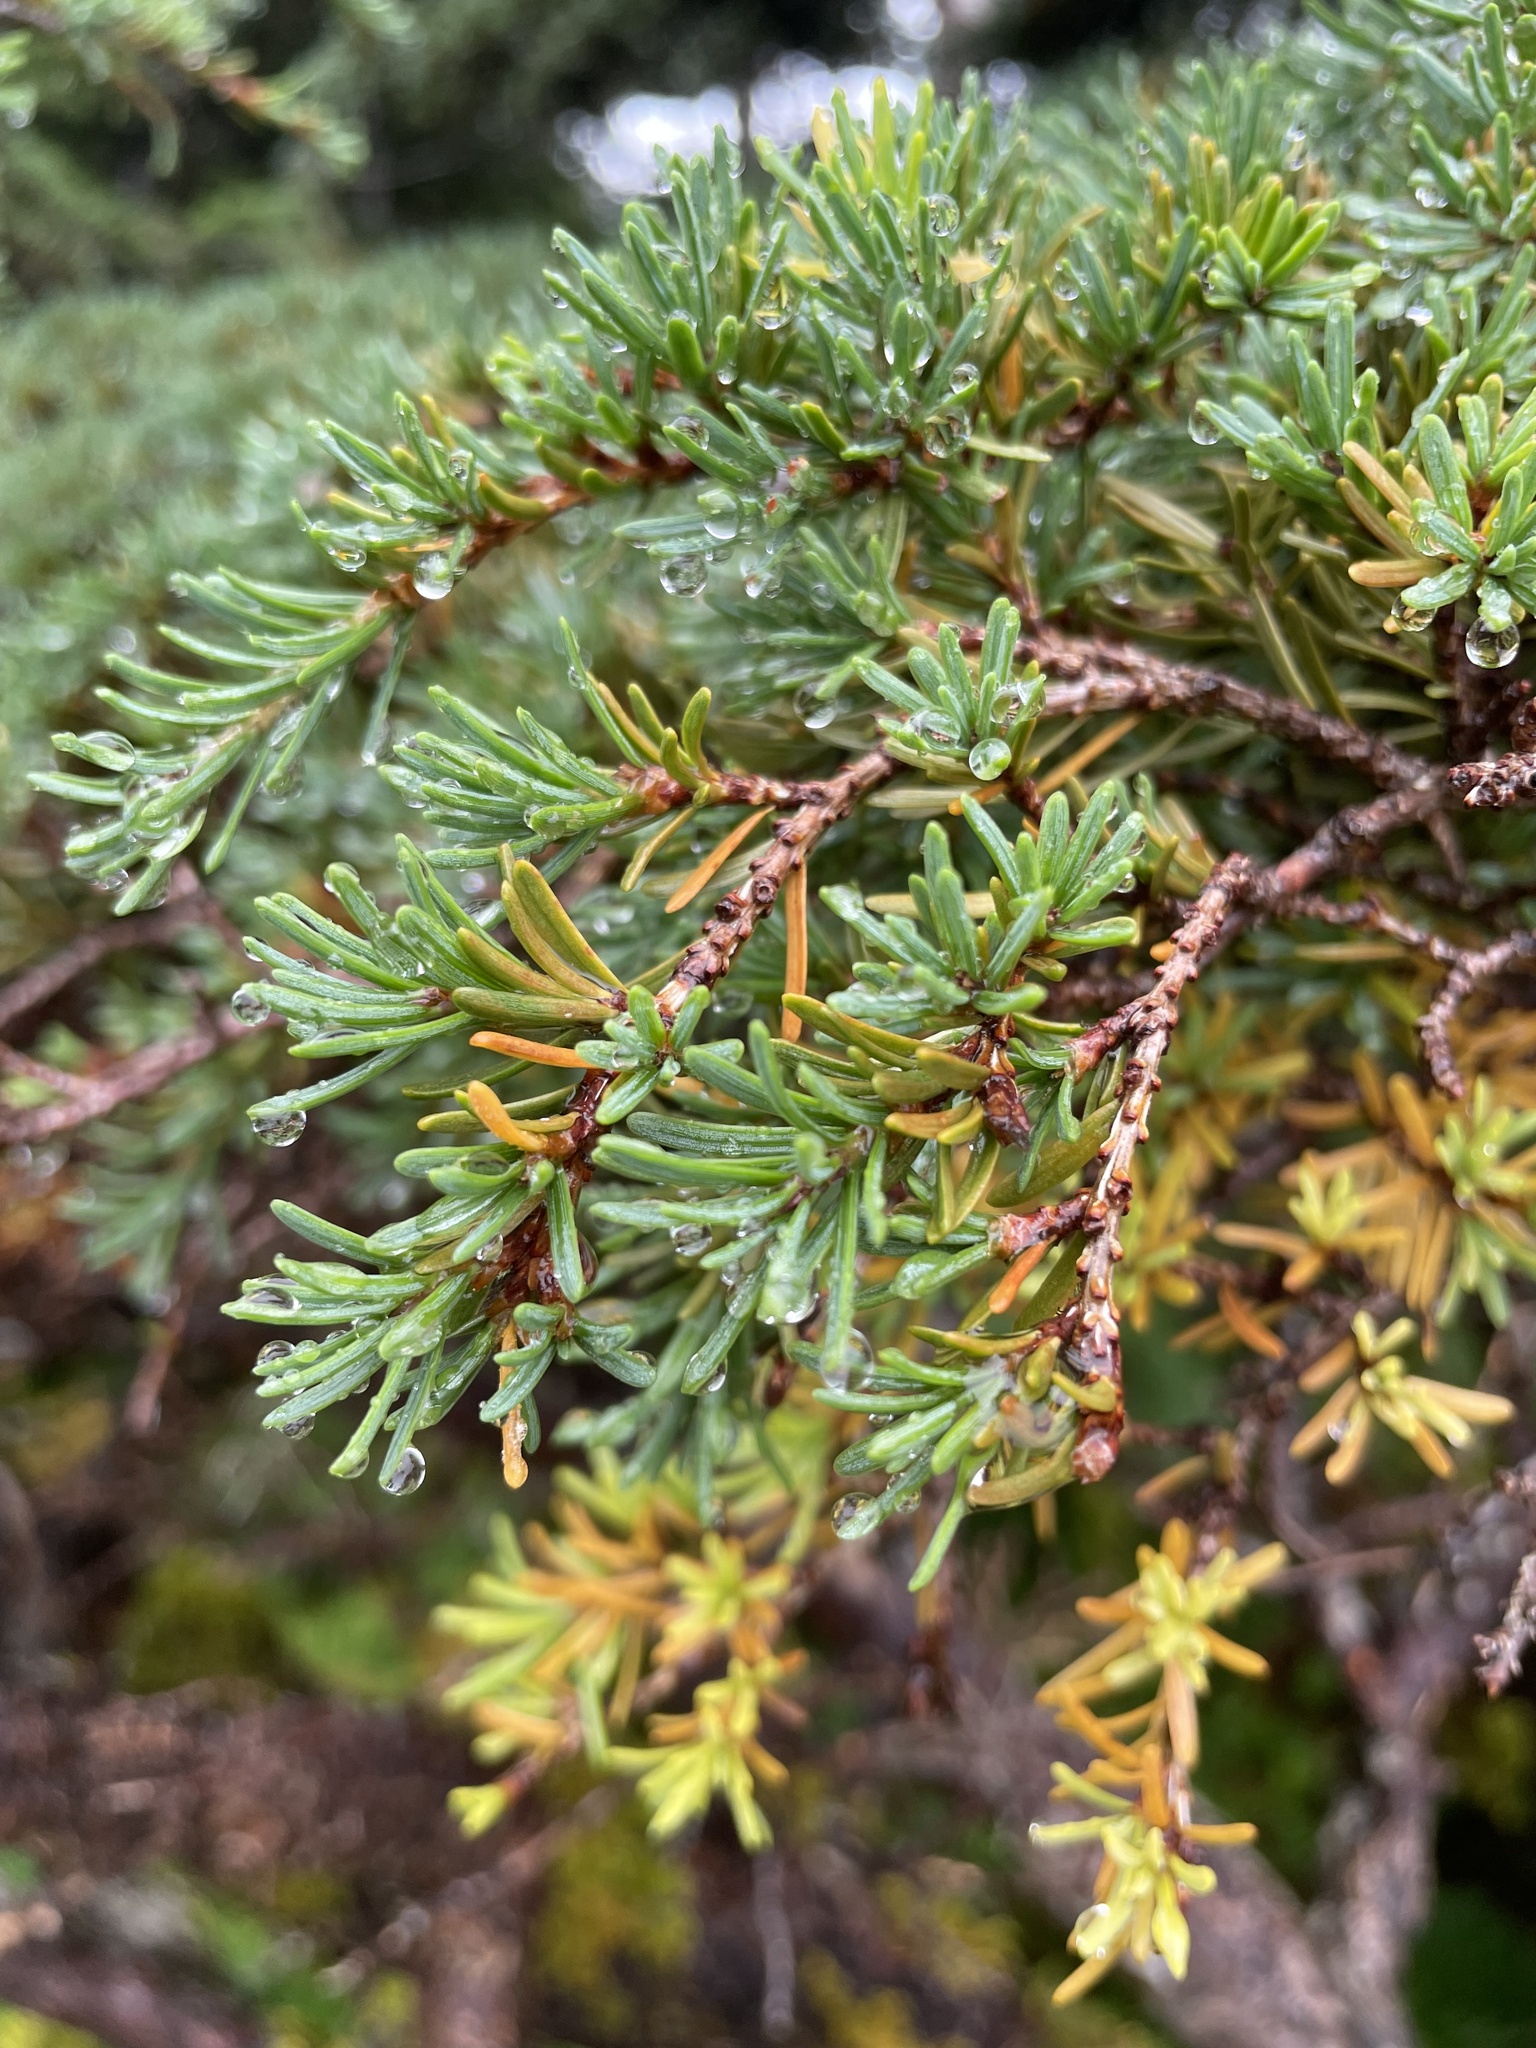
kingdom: Plantae
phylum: Tracheophyta
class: Pinopsida
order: Pinales
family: Pinaceae
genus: Tsuga
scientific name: Tsuga mertensiana
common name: Mountain hemlock
